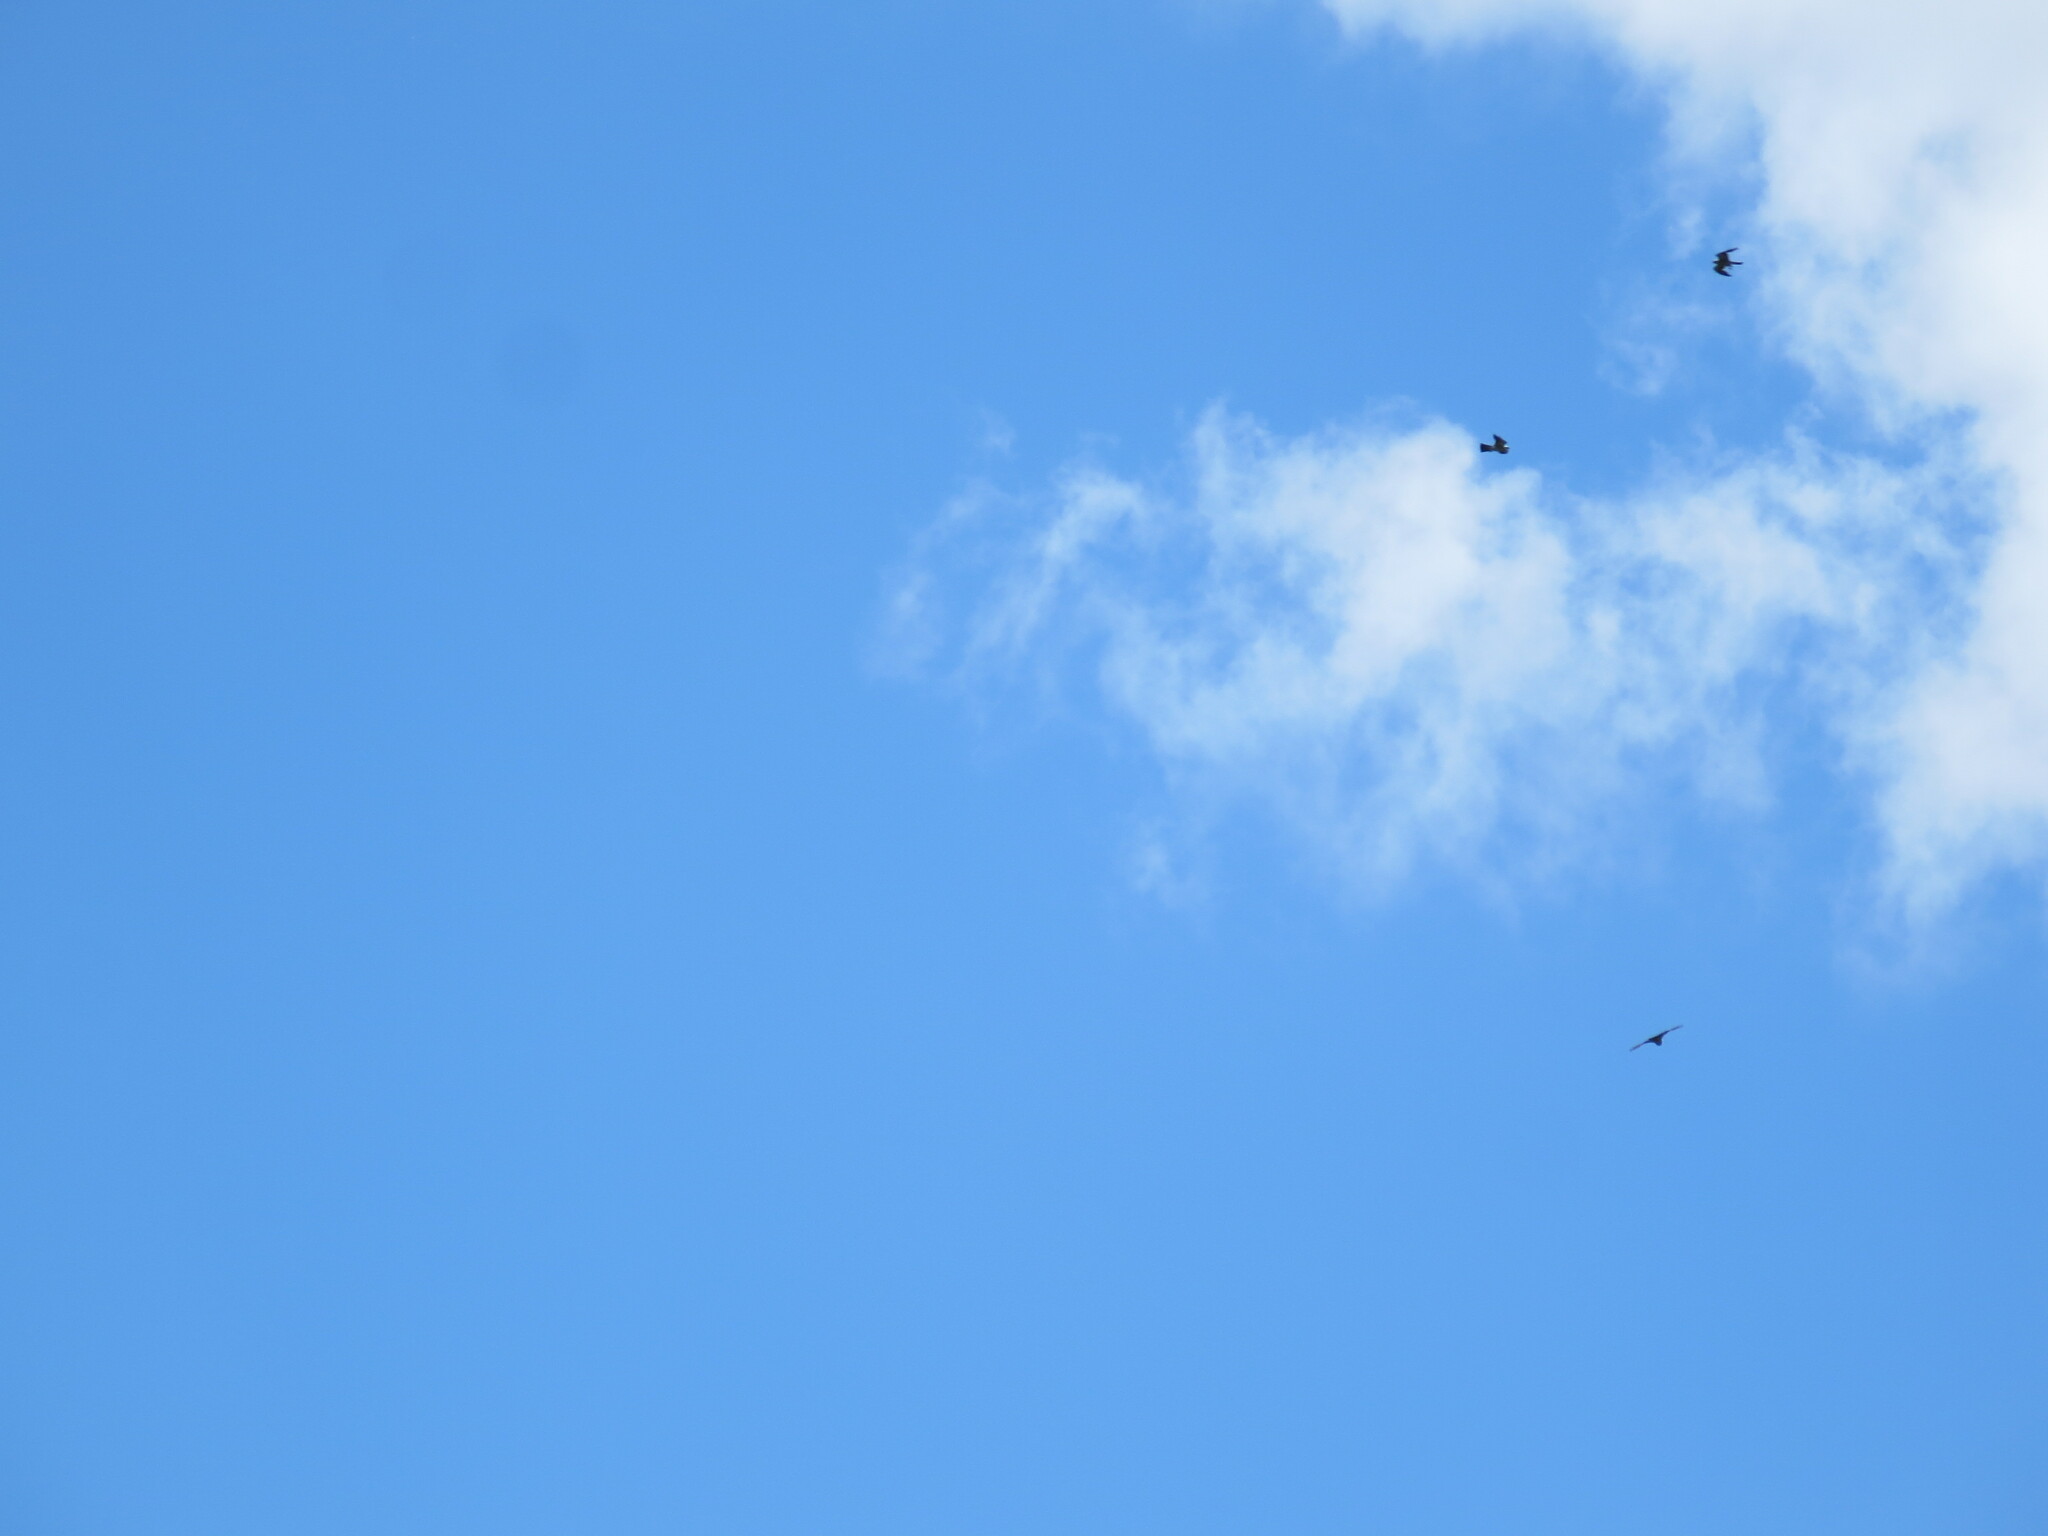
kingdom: Animalia
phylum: Chordata
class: Aves
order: Accipitriformes
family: Accipitridae
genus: Ictinia
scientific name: Ictinia mississippiensis
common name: Mississippi kite
